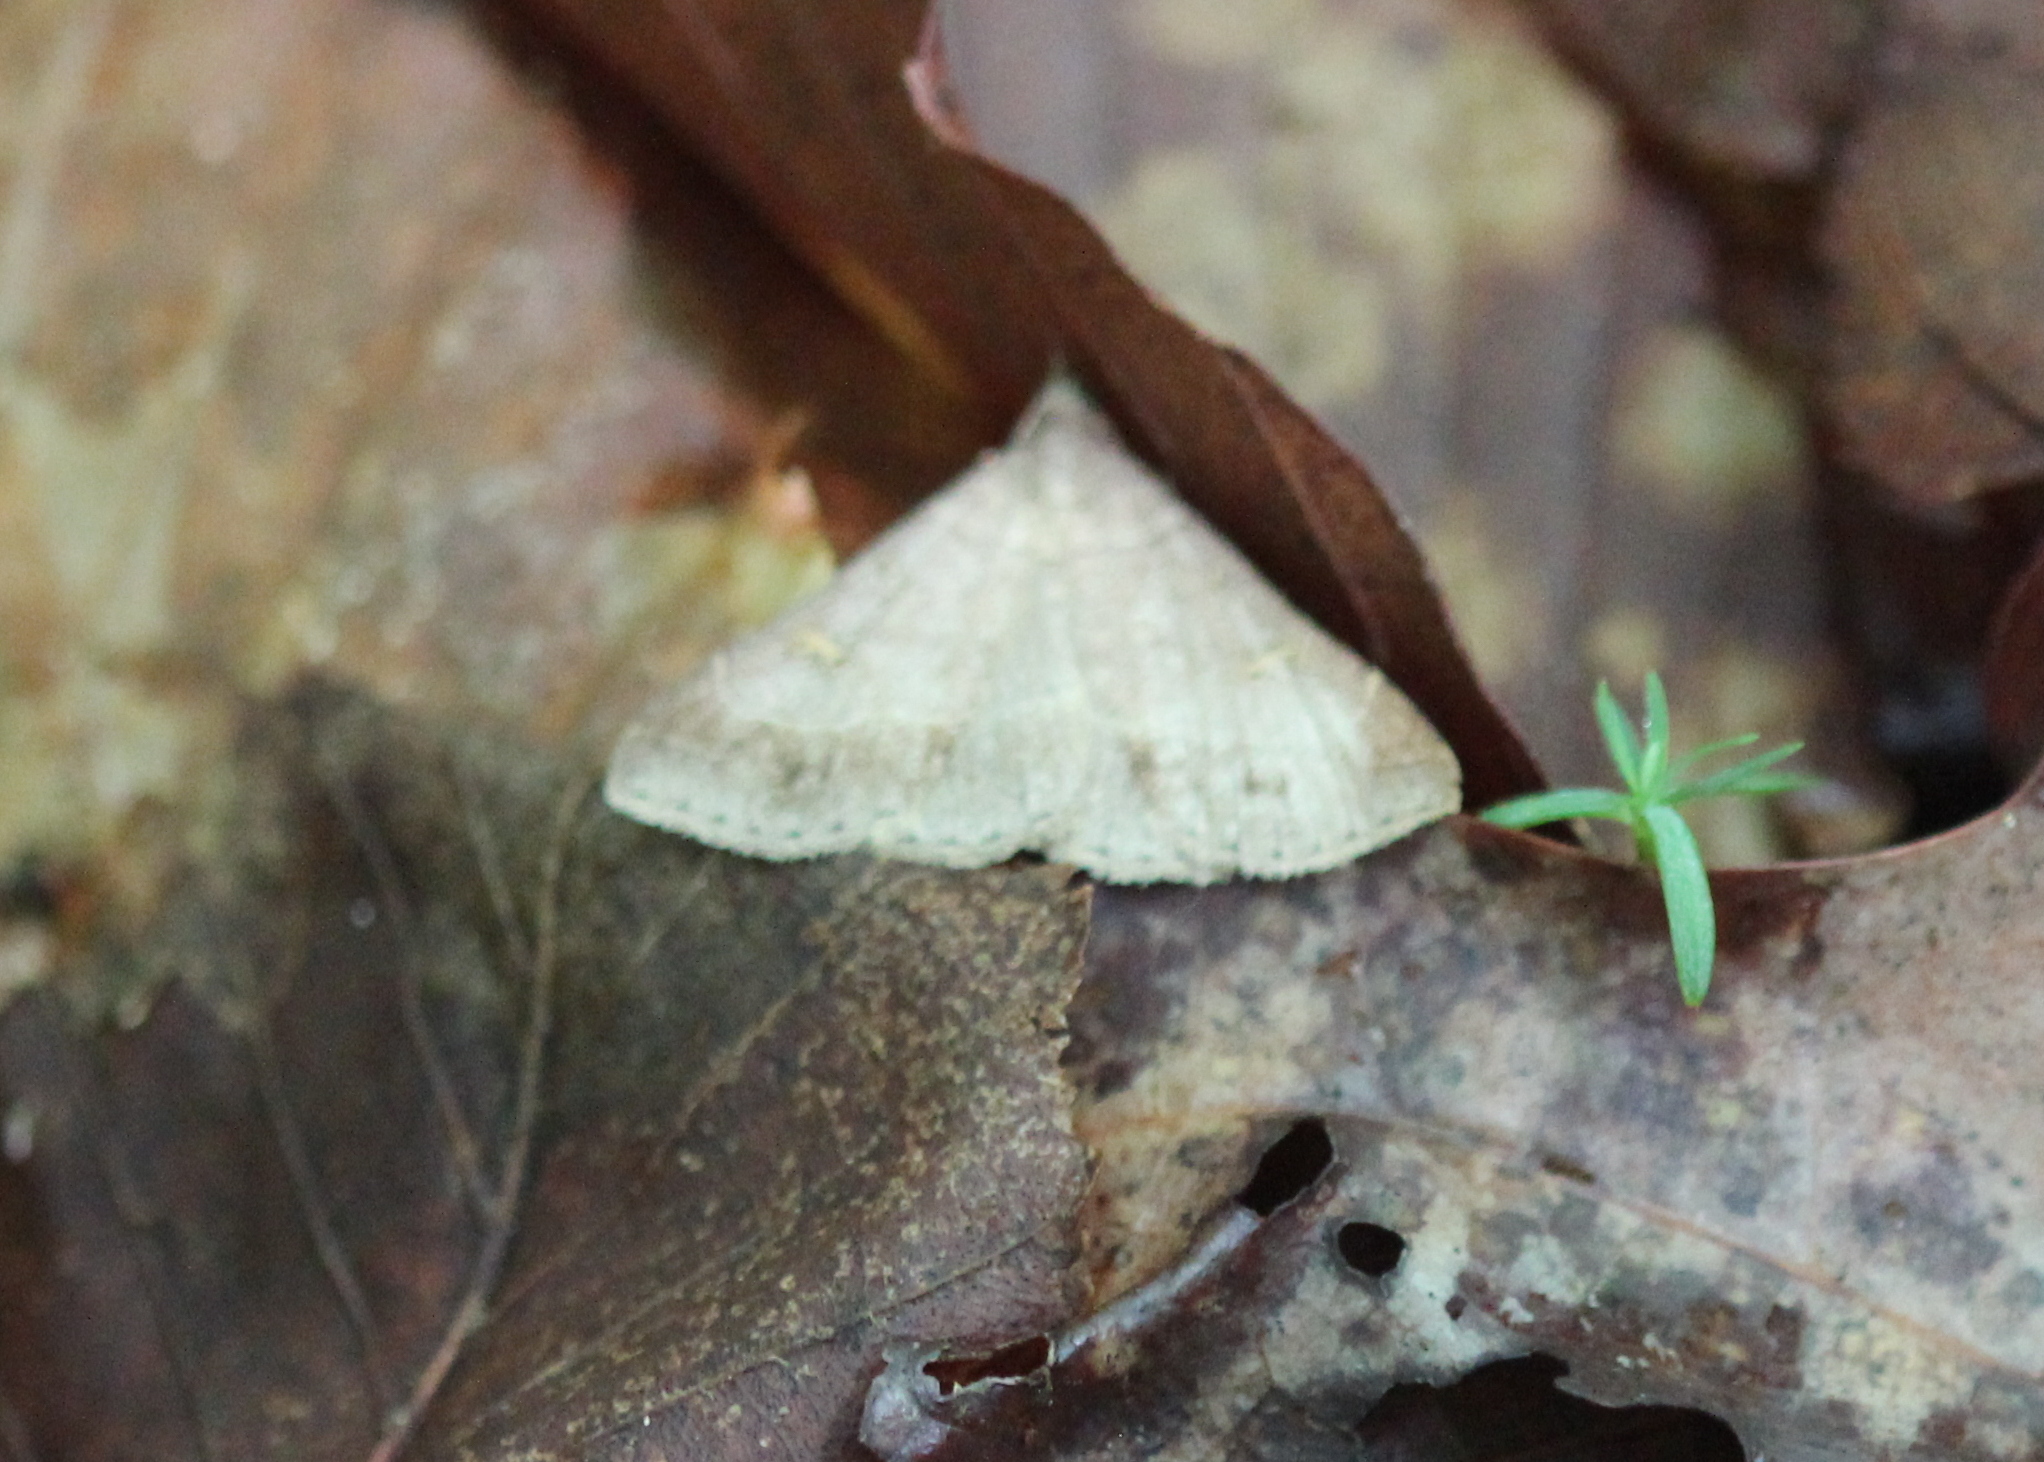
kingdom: Animalia
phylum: Arthropoda
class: Insecta
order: Lepidoptera
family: Erebidae
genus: Renia
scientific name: Renia flavipunctalis
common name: Yellow-spotted renia moth
